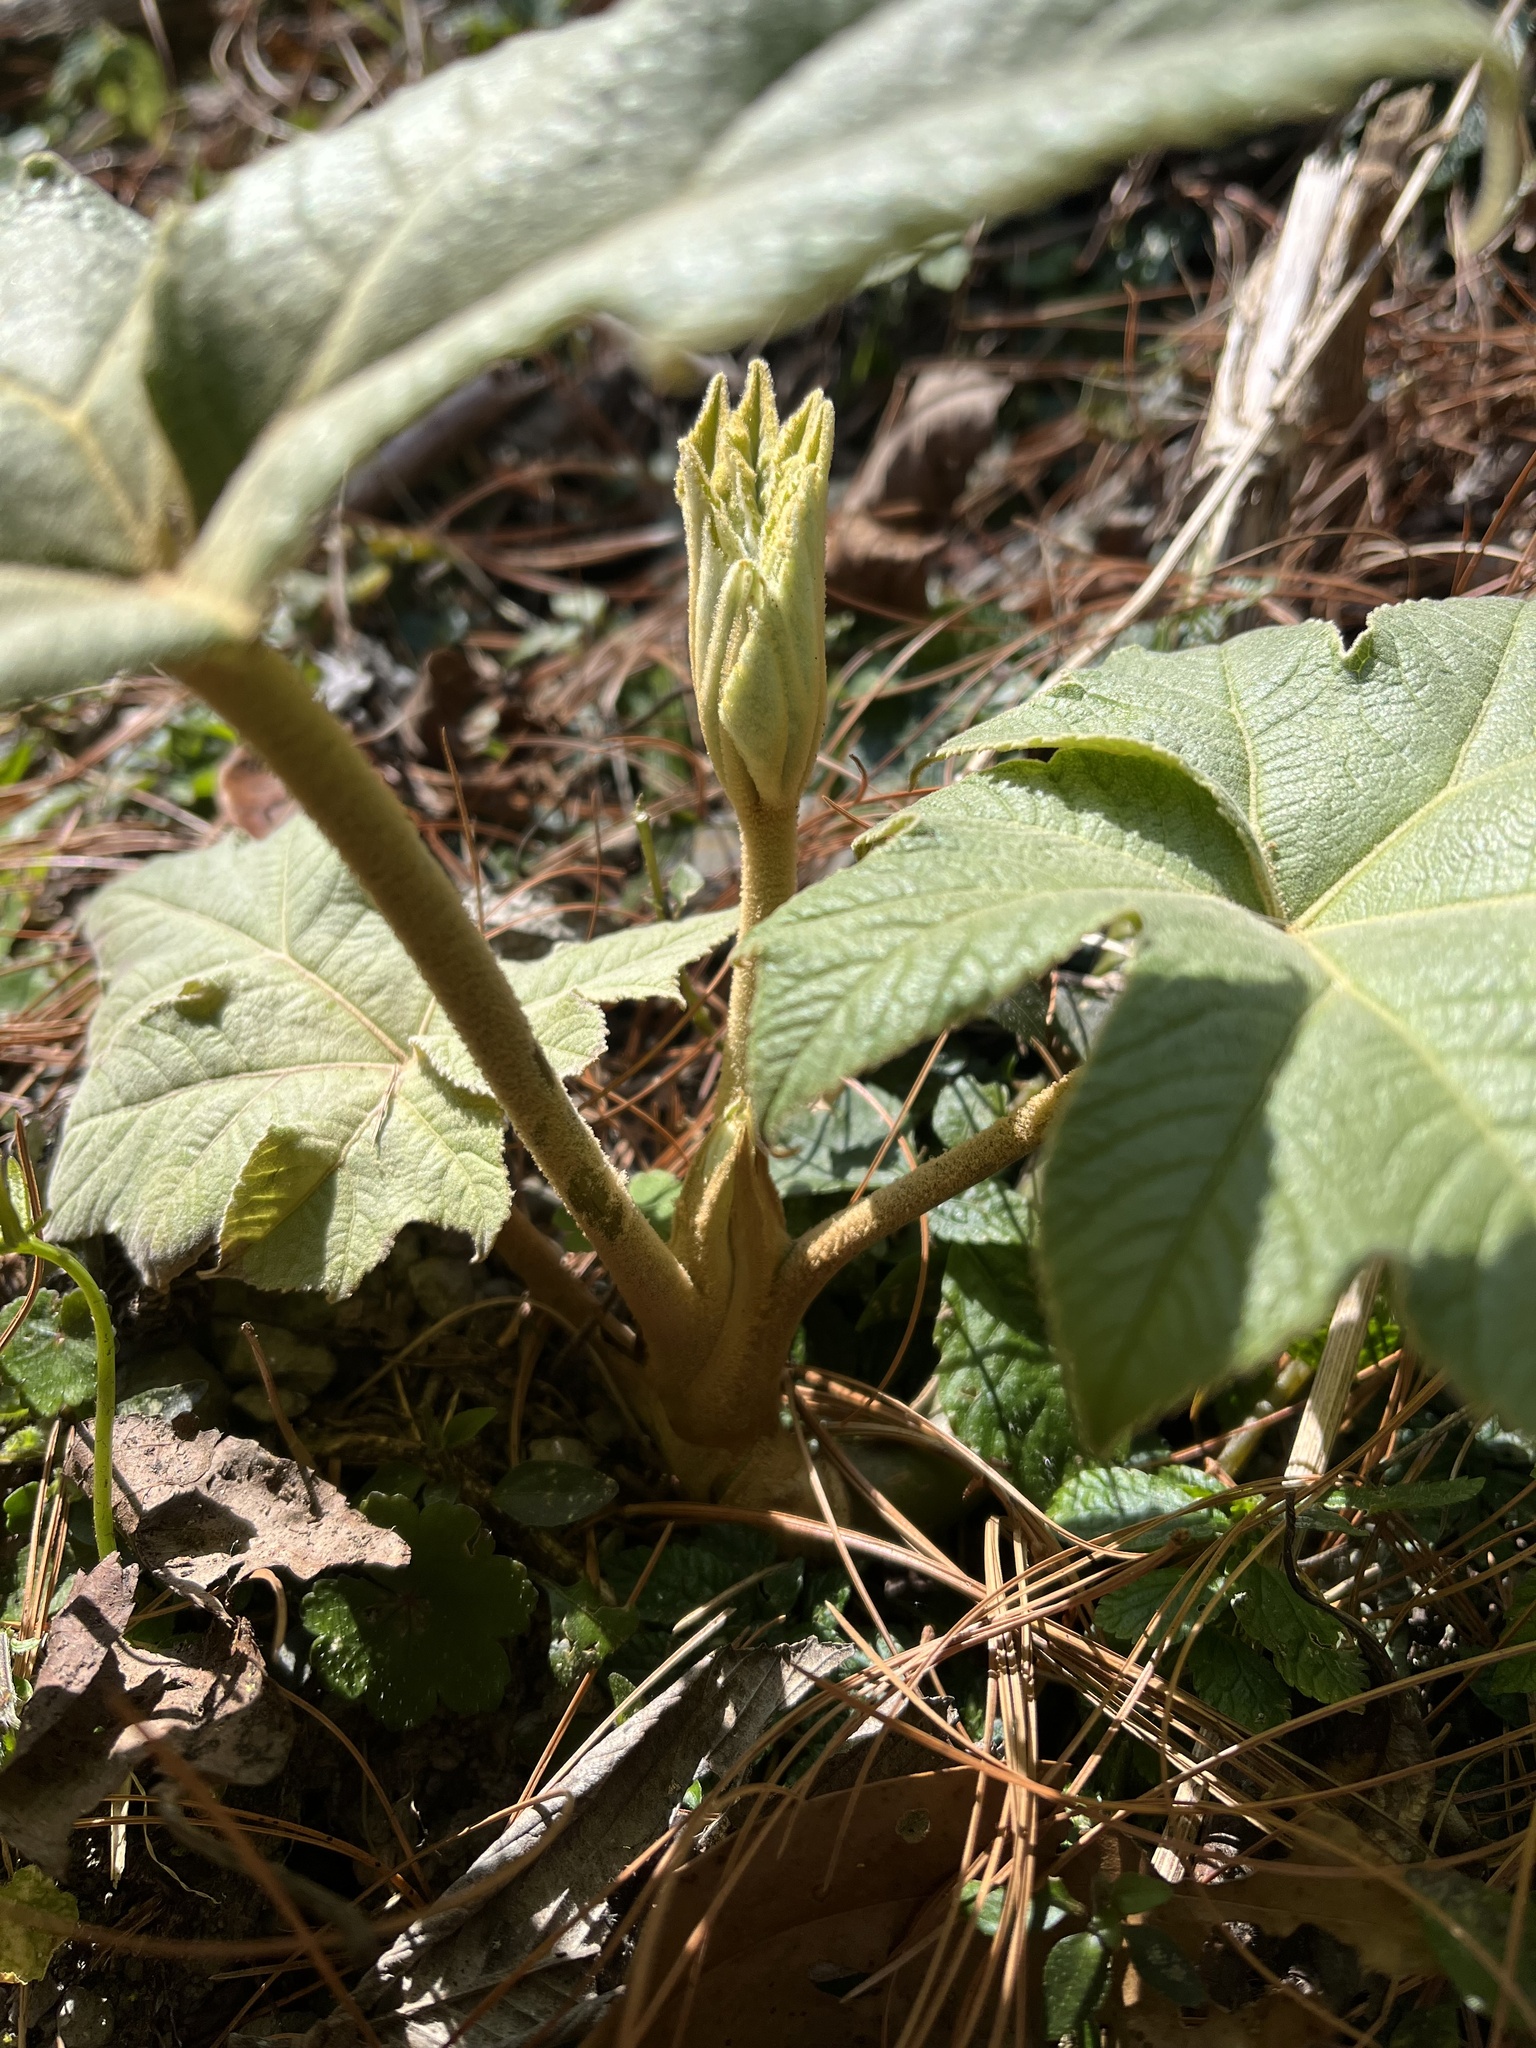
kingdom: Plantae
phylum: Tracheophyta
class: Magnoliopsida
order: Apiales
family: Araliaceae
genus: Tetrapanax
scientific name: Tetrapanax papyrifer
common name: Rice-paper plant
